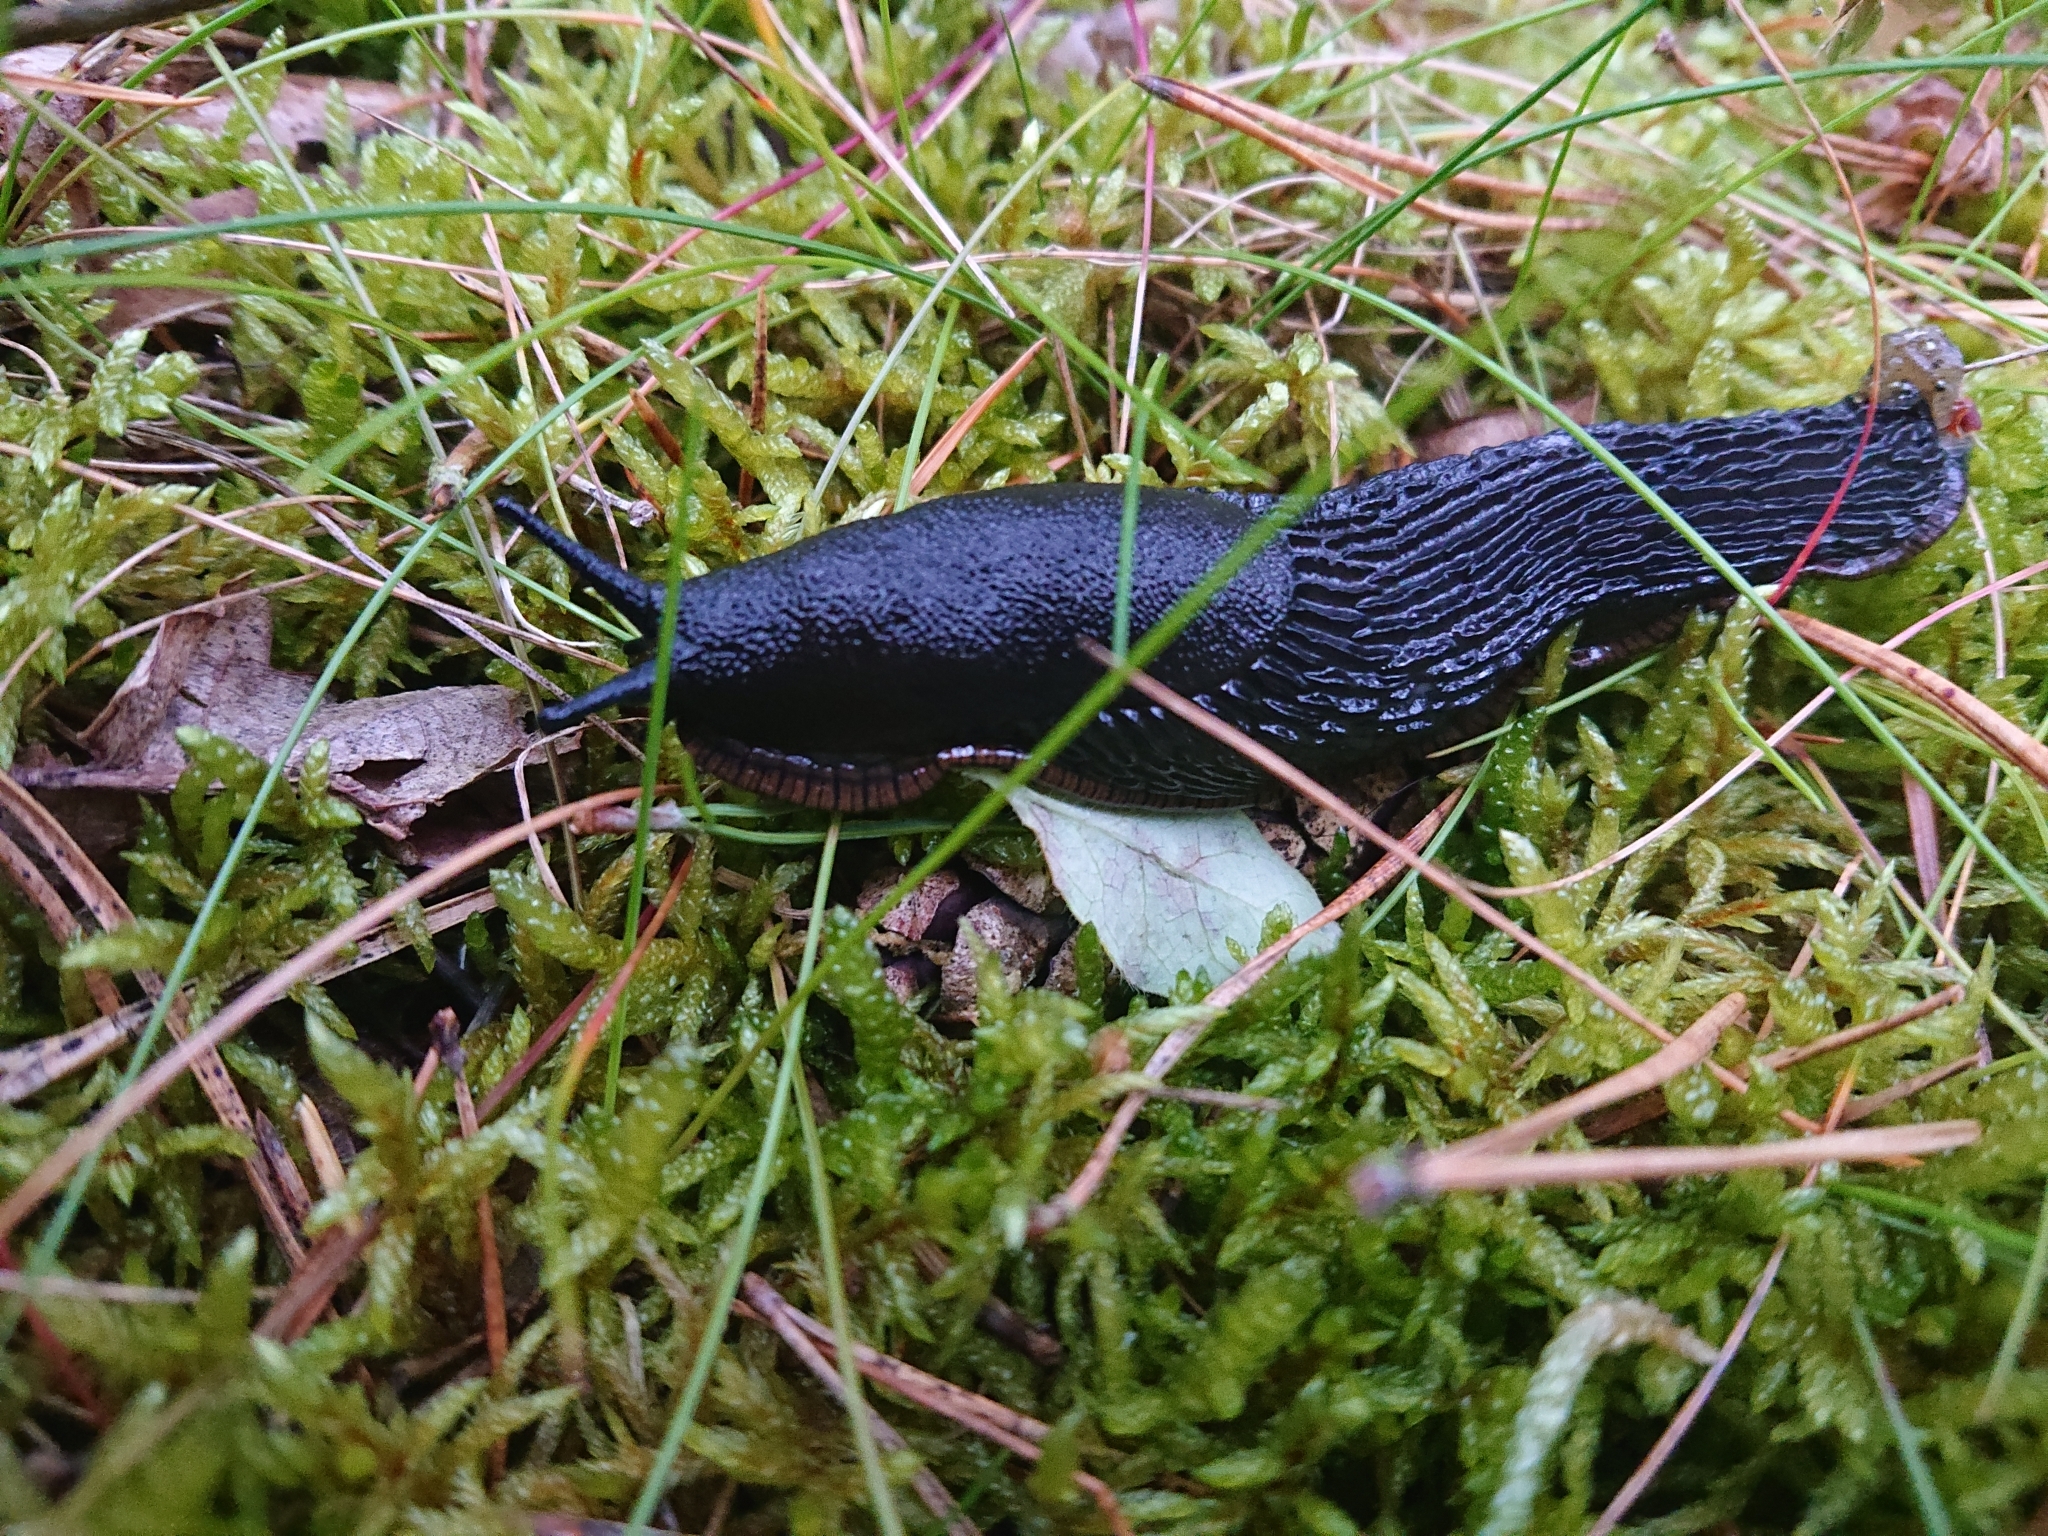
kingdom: Animalia
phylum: Mollusca
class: Gastropoda
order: Stylommatophora
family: Arionidae
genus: Arion
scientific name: Arion ater
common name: Black arion
